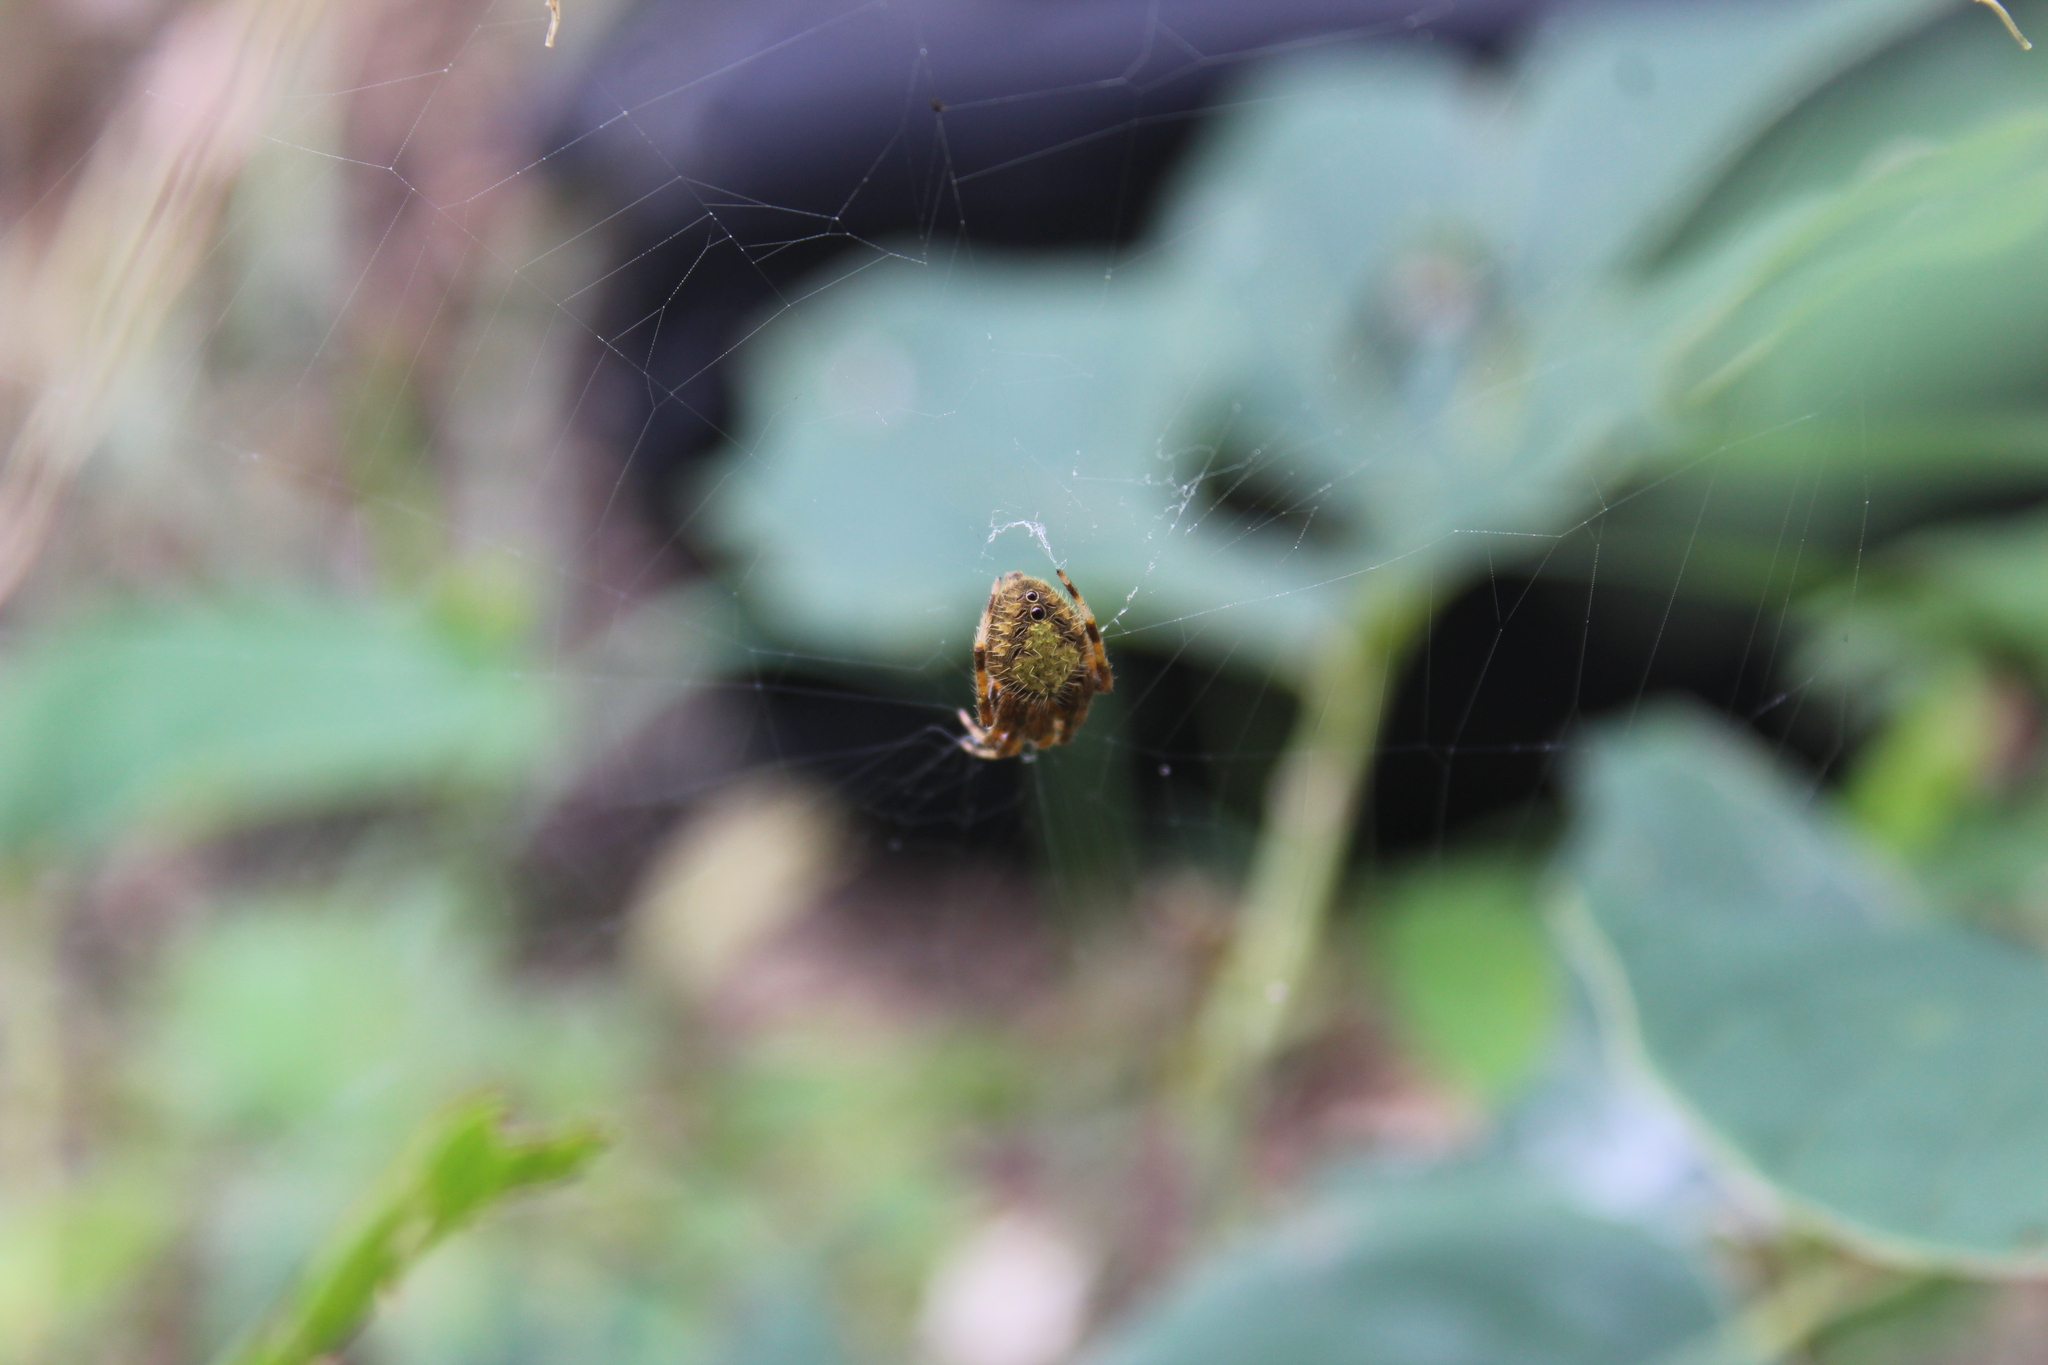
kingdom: Animalia
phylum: Arthropoda
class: Arachnida
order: Araneae
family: Araneidae
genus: Eriophora
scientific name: Eriophora ravilla
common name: Orb weavers
